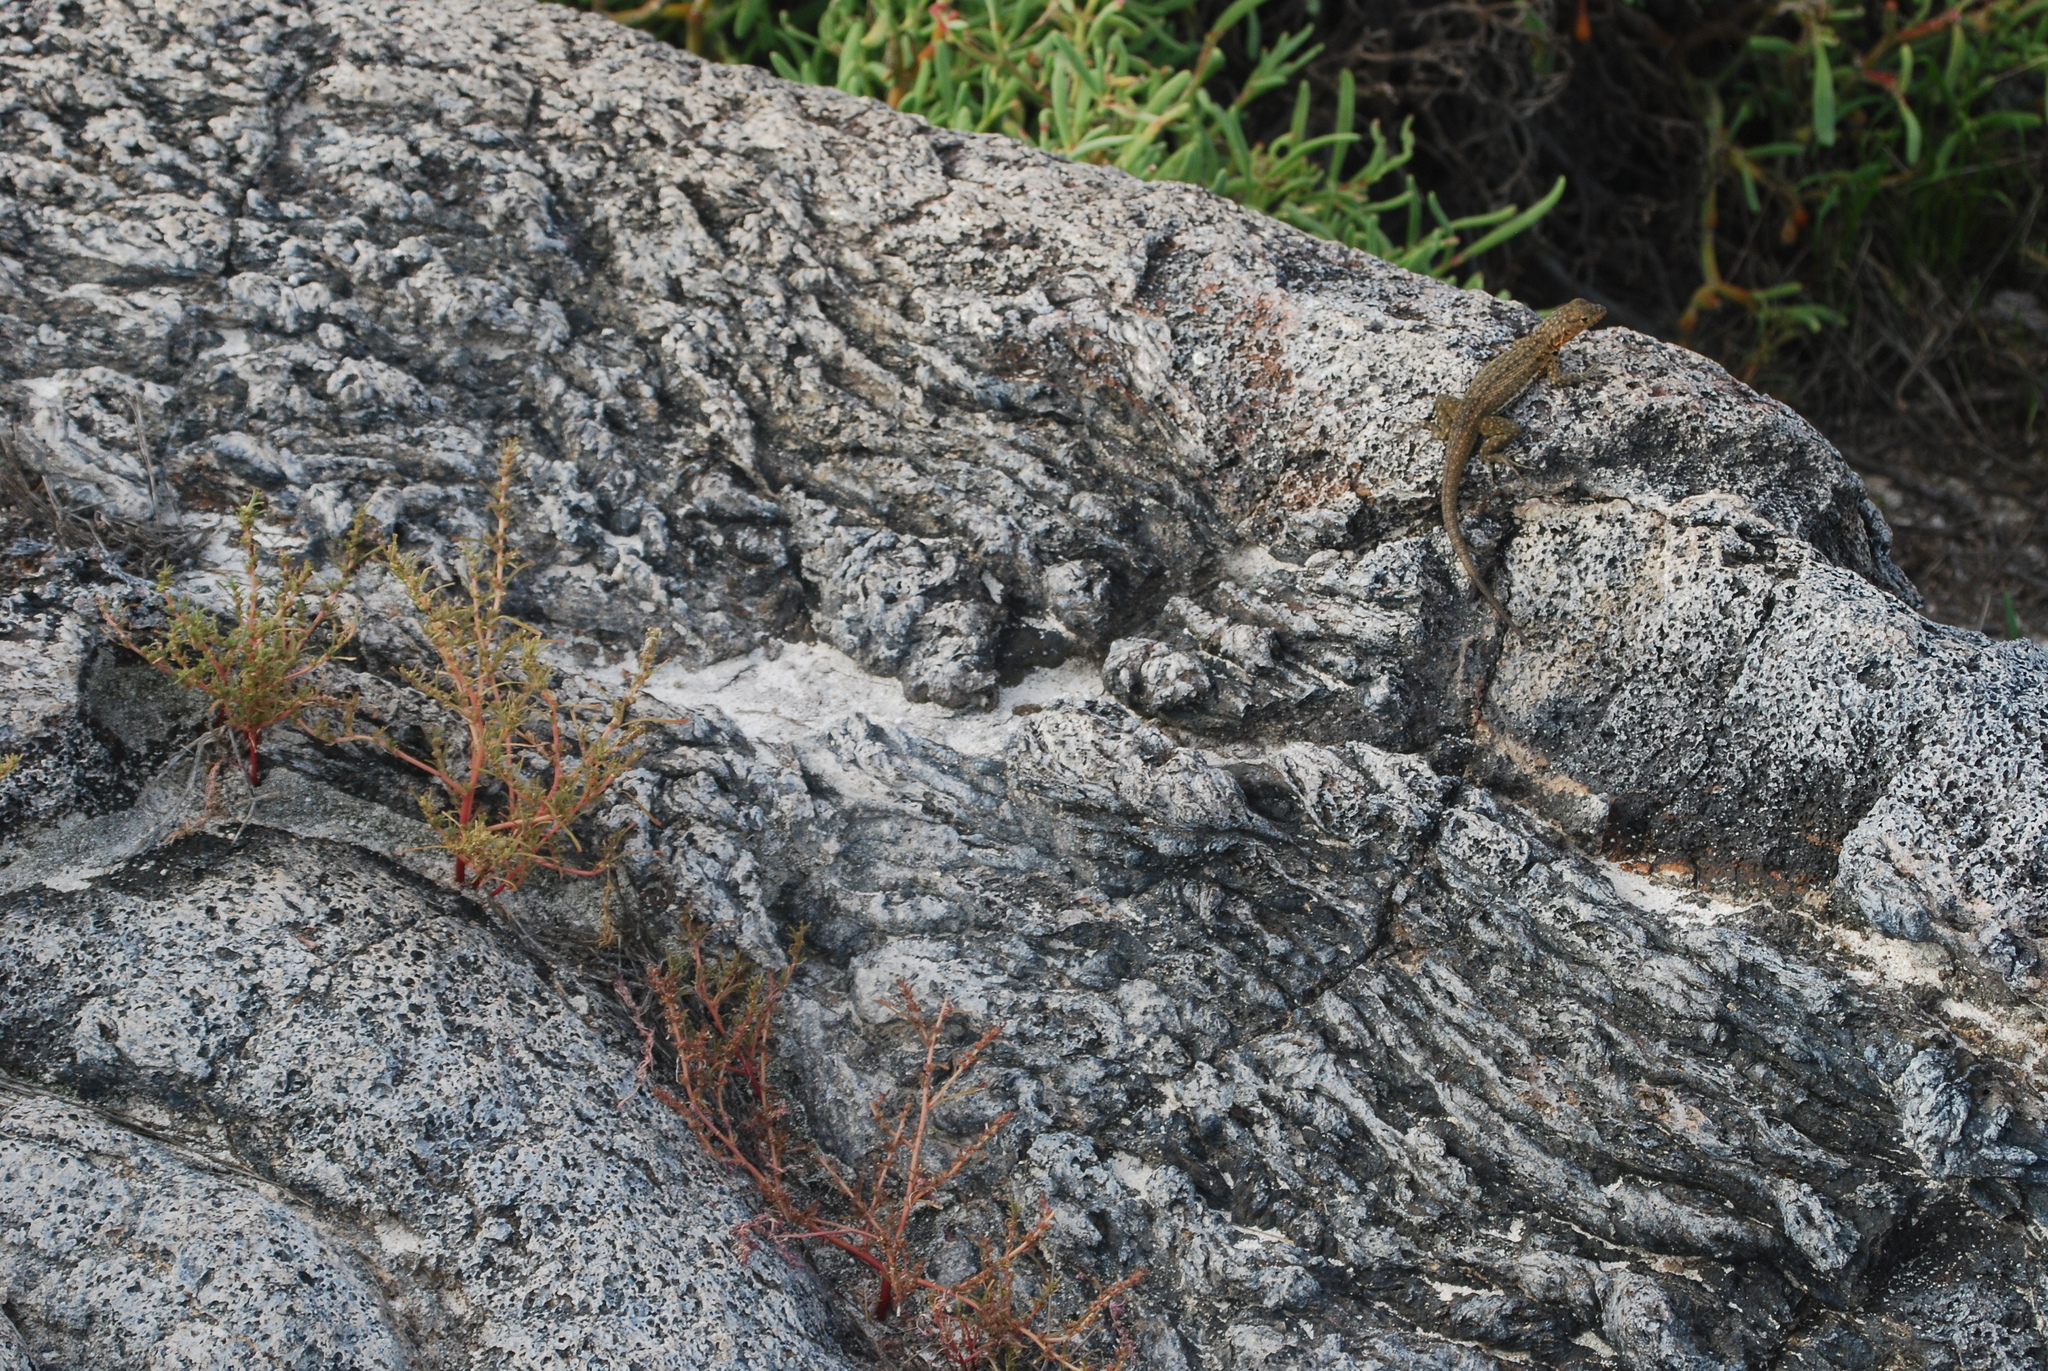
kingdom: Animalia
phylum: Chordata
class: Squamata
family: Tropiduridae
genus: Microlophus
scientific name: Microlophus jacobii
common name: Santiago lava lizard
